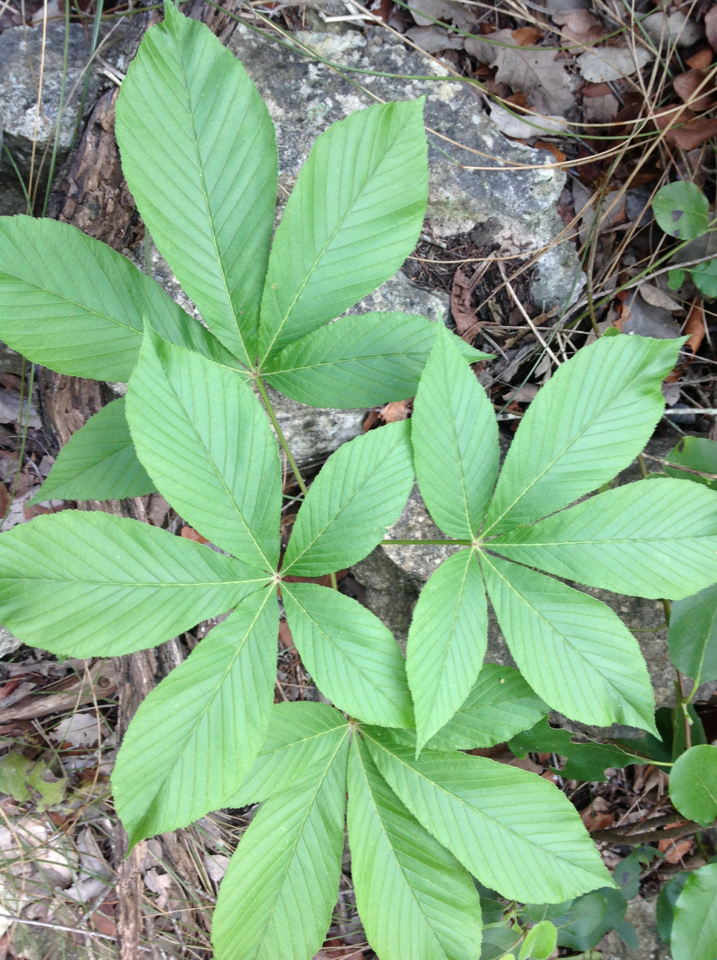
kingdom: Plantae
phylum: Tracheophyta
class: Magnoliopsida
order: Sapindales
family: Sapindaceae
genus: Aesculus
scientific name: Aesculus pavia
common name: Red buckeye
